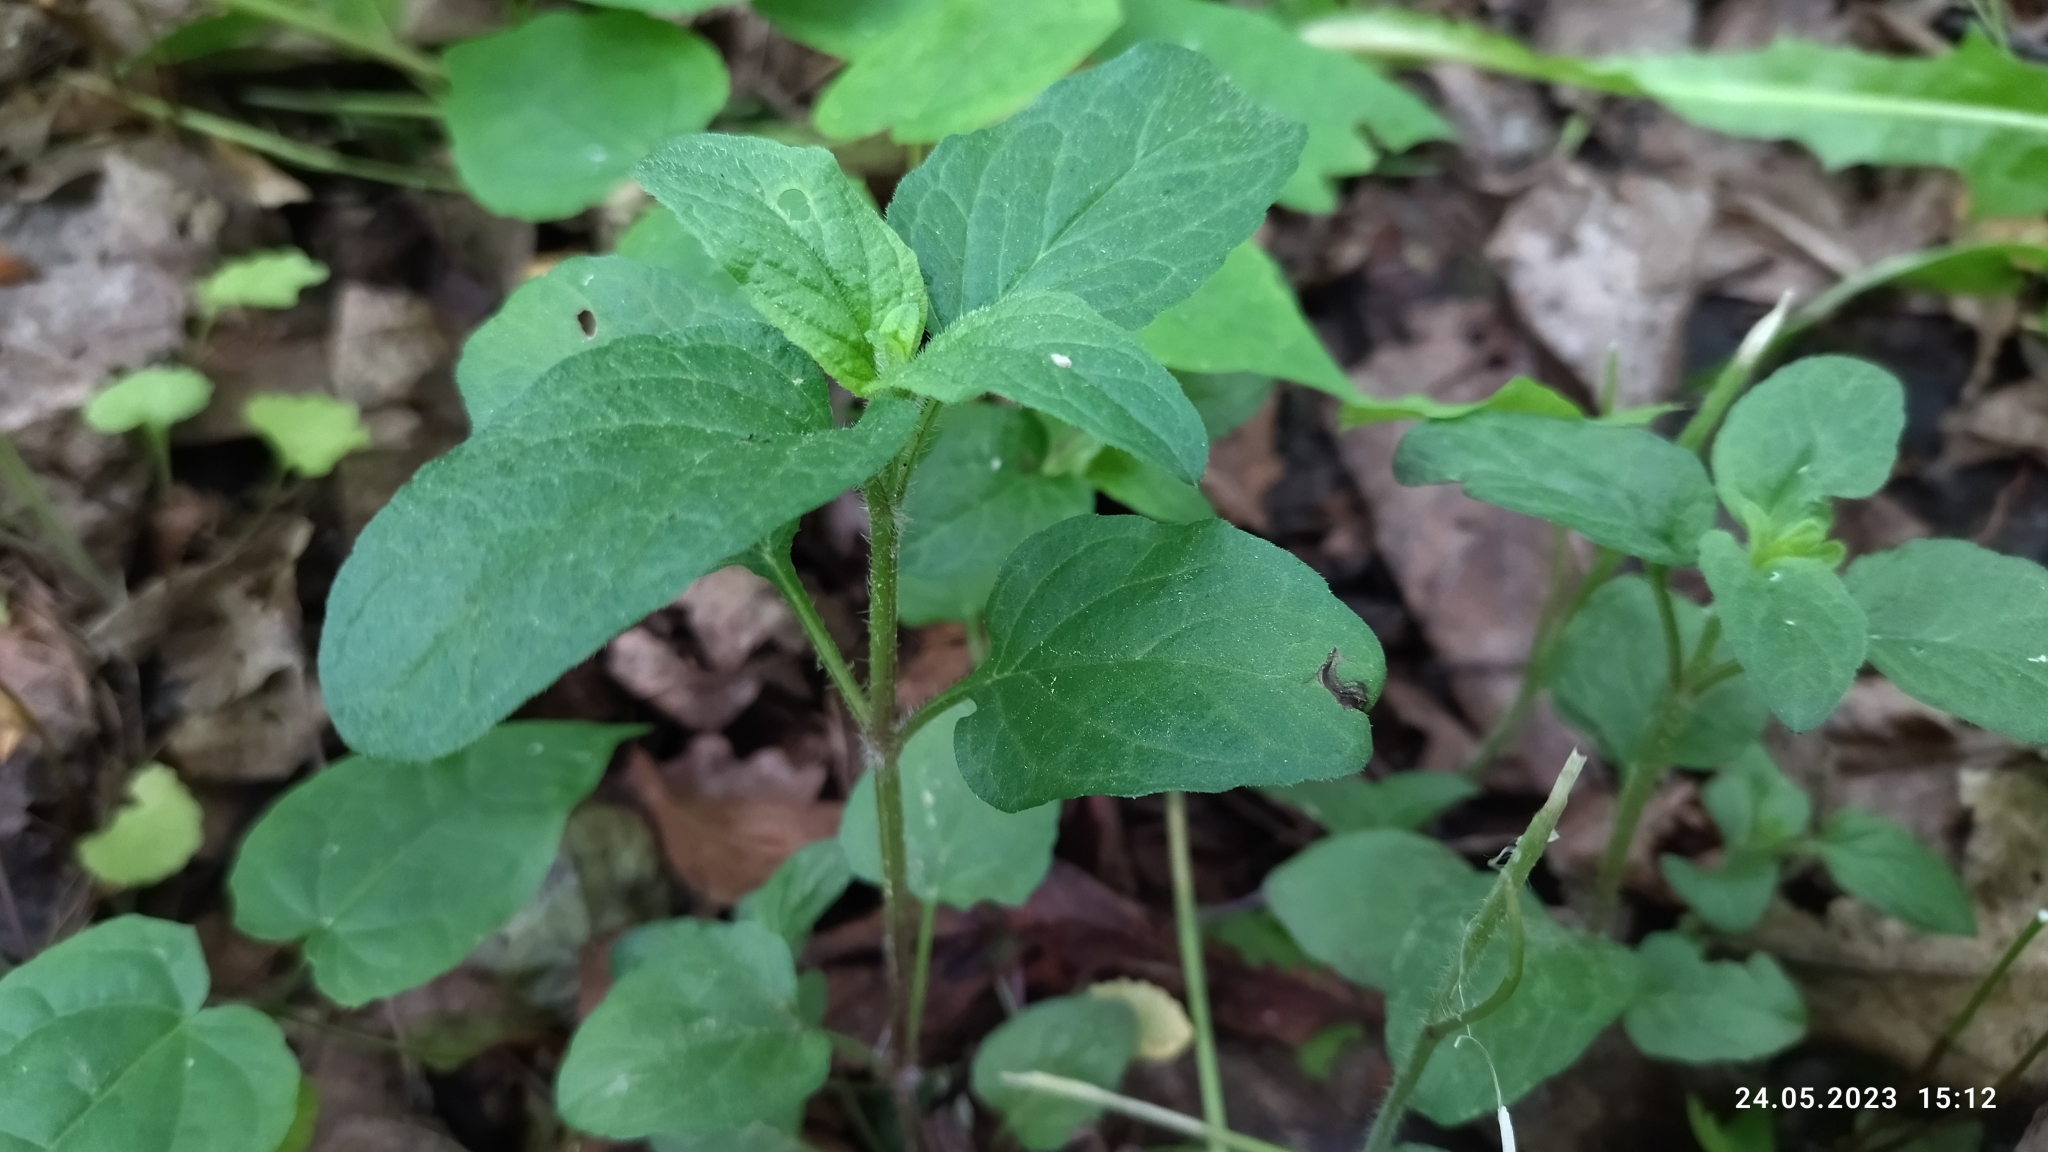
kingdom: Plantae
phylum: Tracheophyta
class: Magnoliopsida
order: Lamiales
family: Lamiaceae
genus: Prunella
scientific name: Prunella vulgaris
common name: Heal-all
